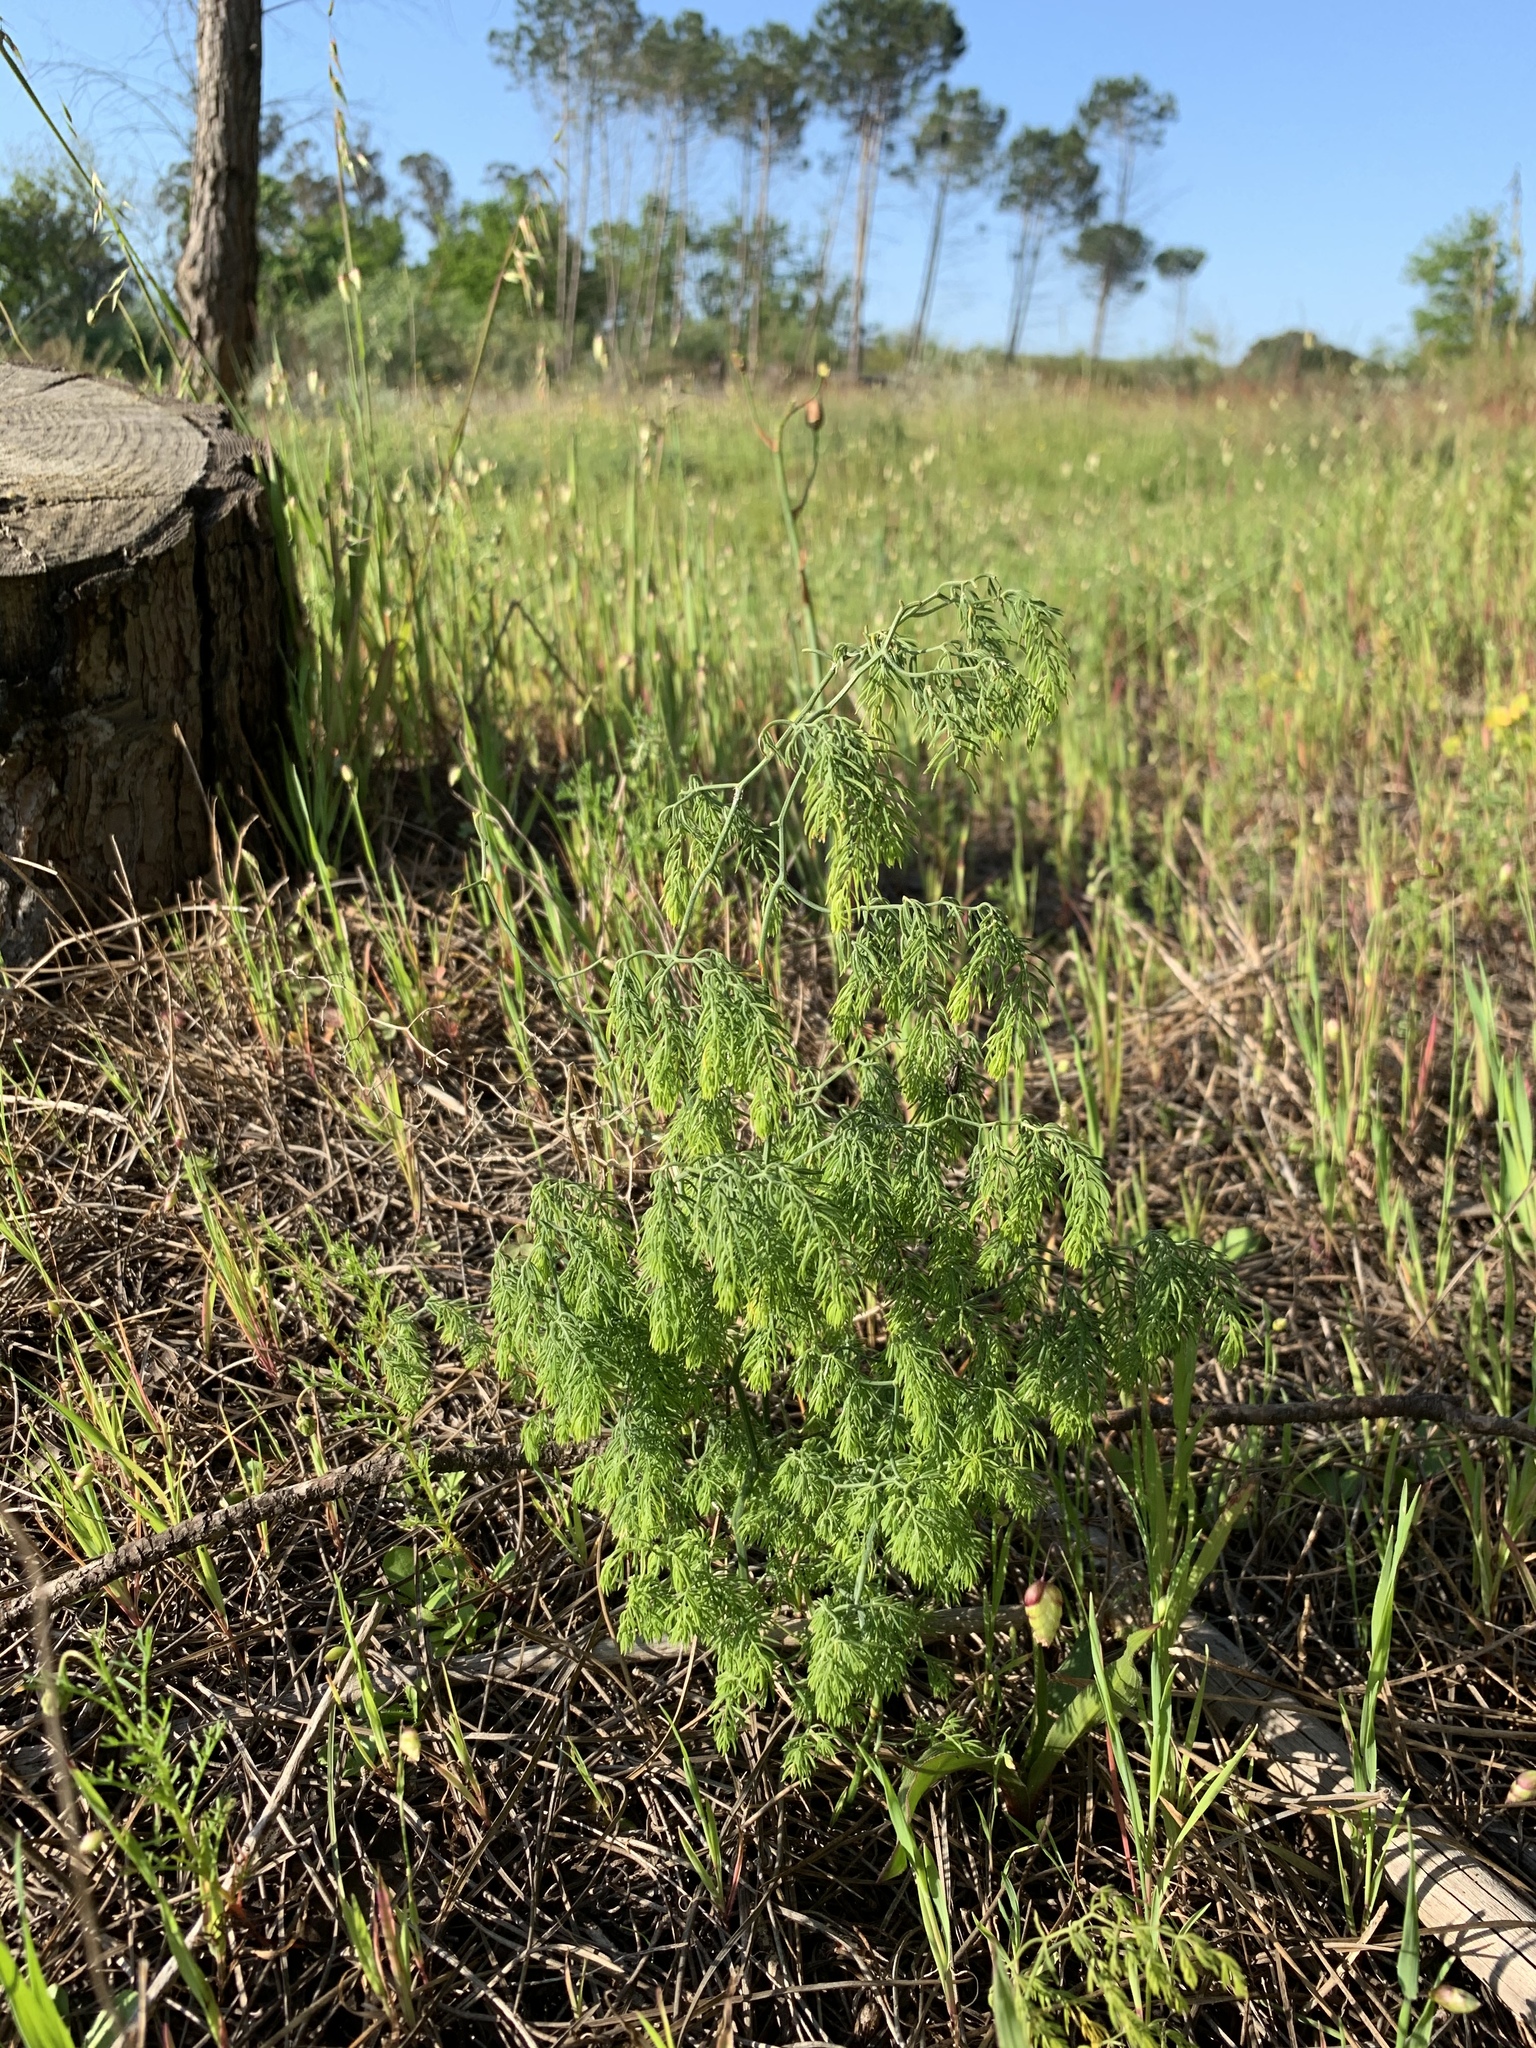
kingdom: Plantae
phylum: Tracheophyta
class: Liliopsida
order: Asparagales
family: Asparagaceae
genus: Asparagus
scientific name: Asparagus declinatus
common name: Bridal-creeper
